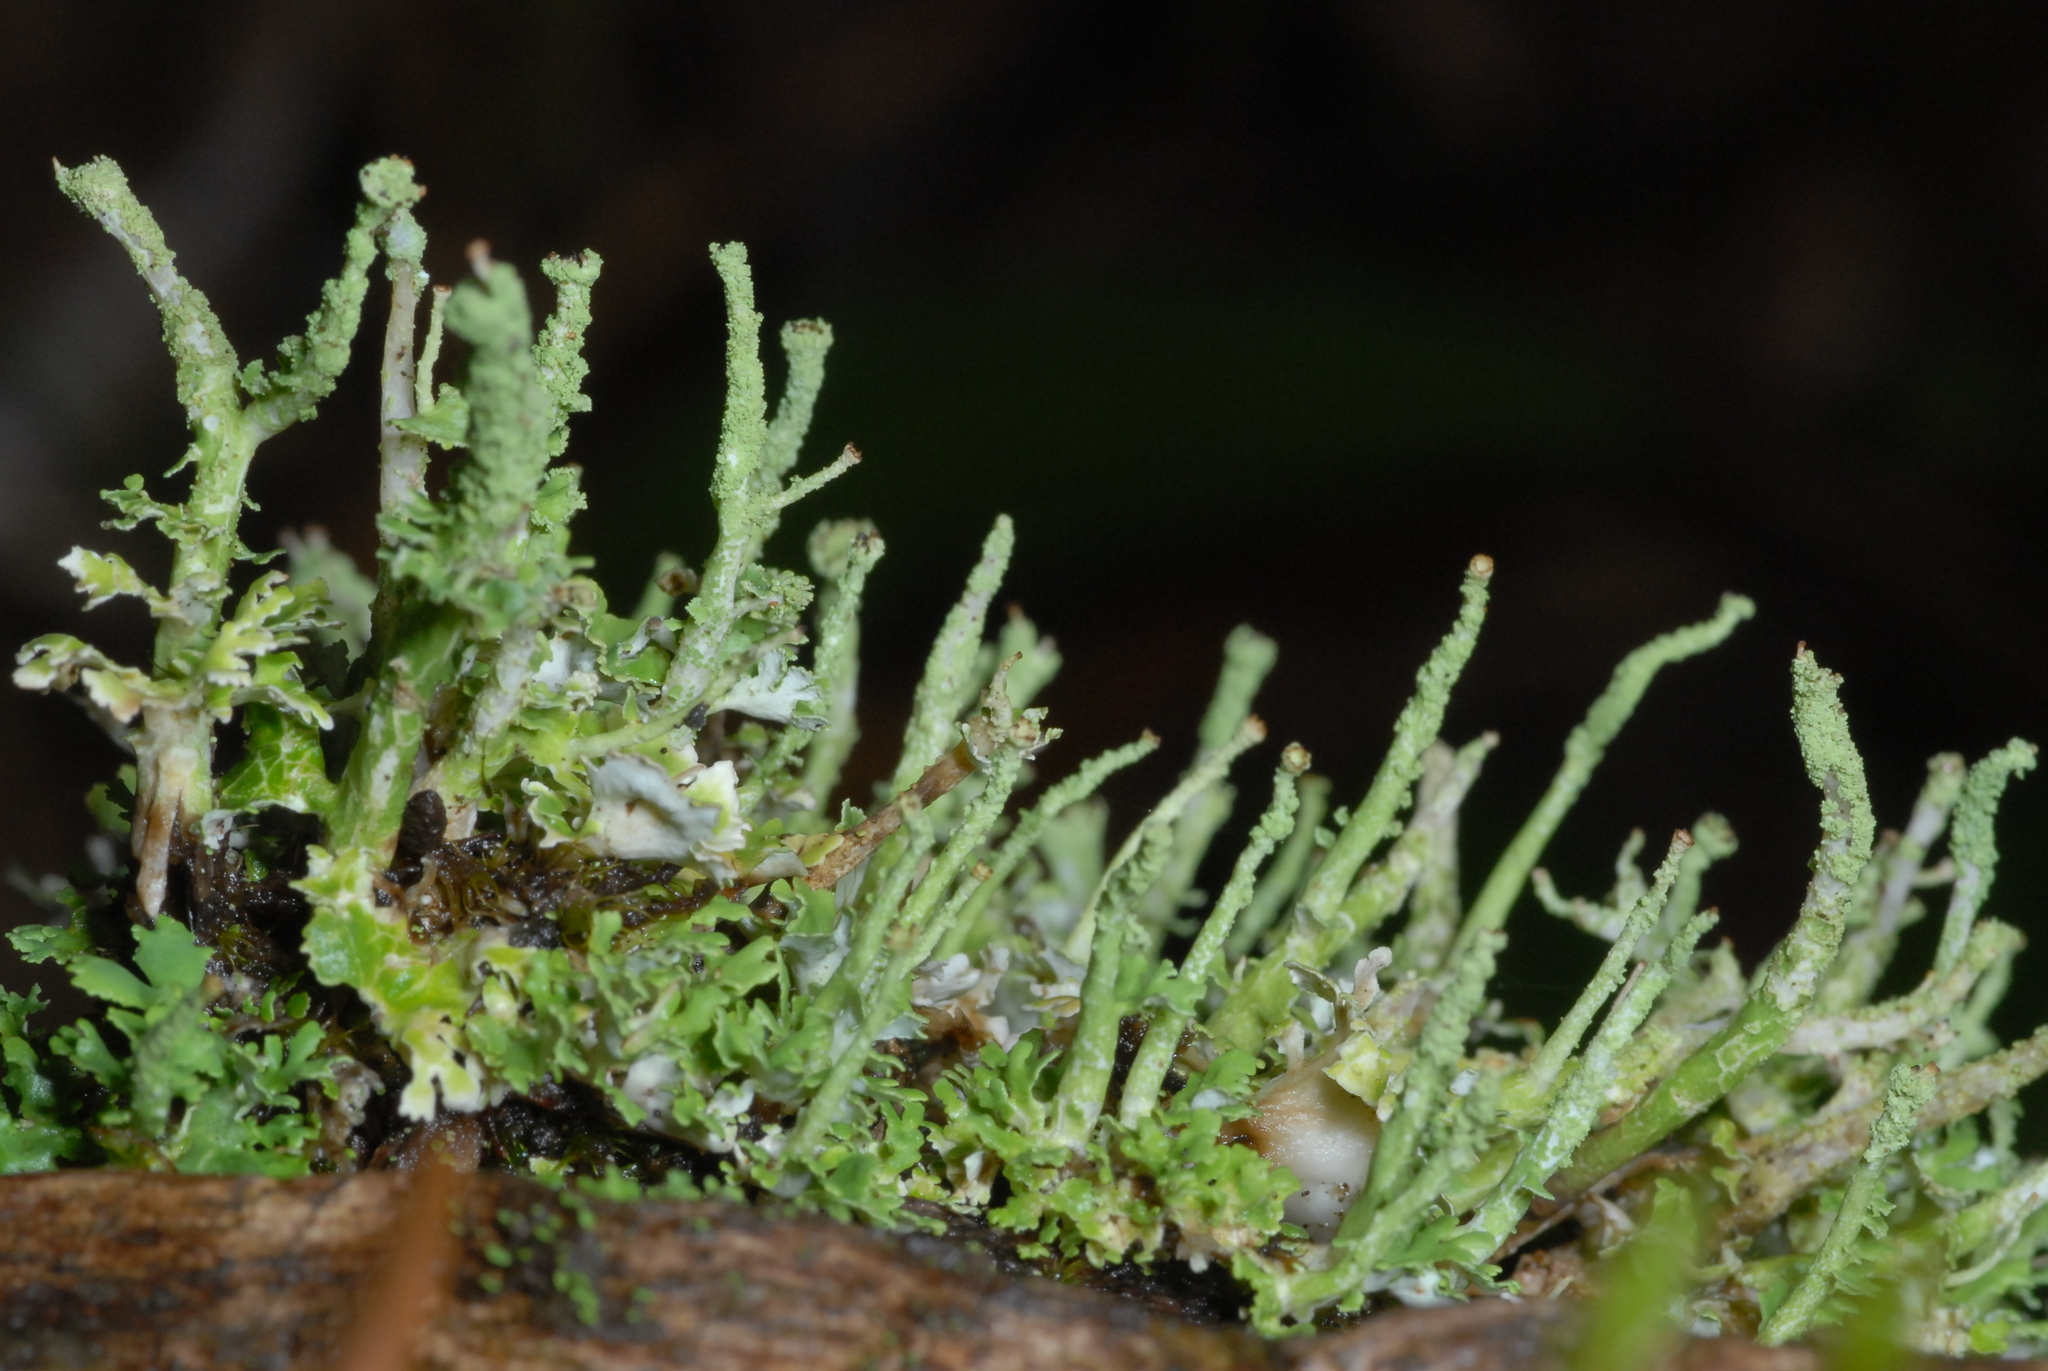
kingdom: Fungi
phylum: Ascomycota
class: Lecanoromycetes
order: Lecanorales
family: Cladoniaceae
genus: Cladonia
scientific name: Cladonia coniocraea
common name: Common powderhorn
